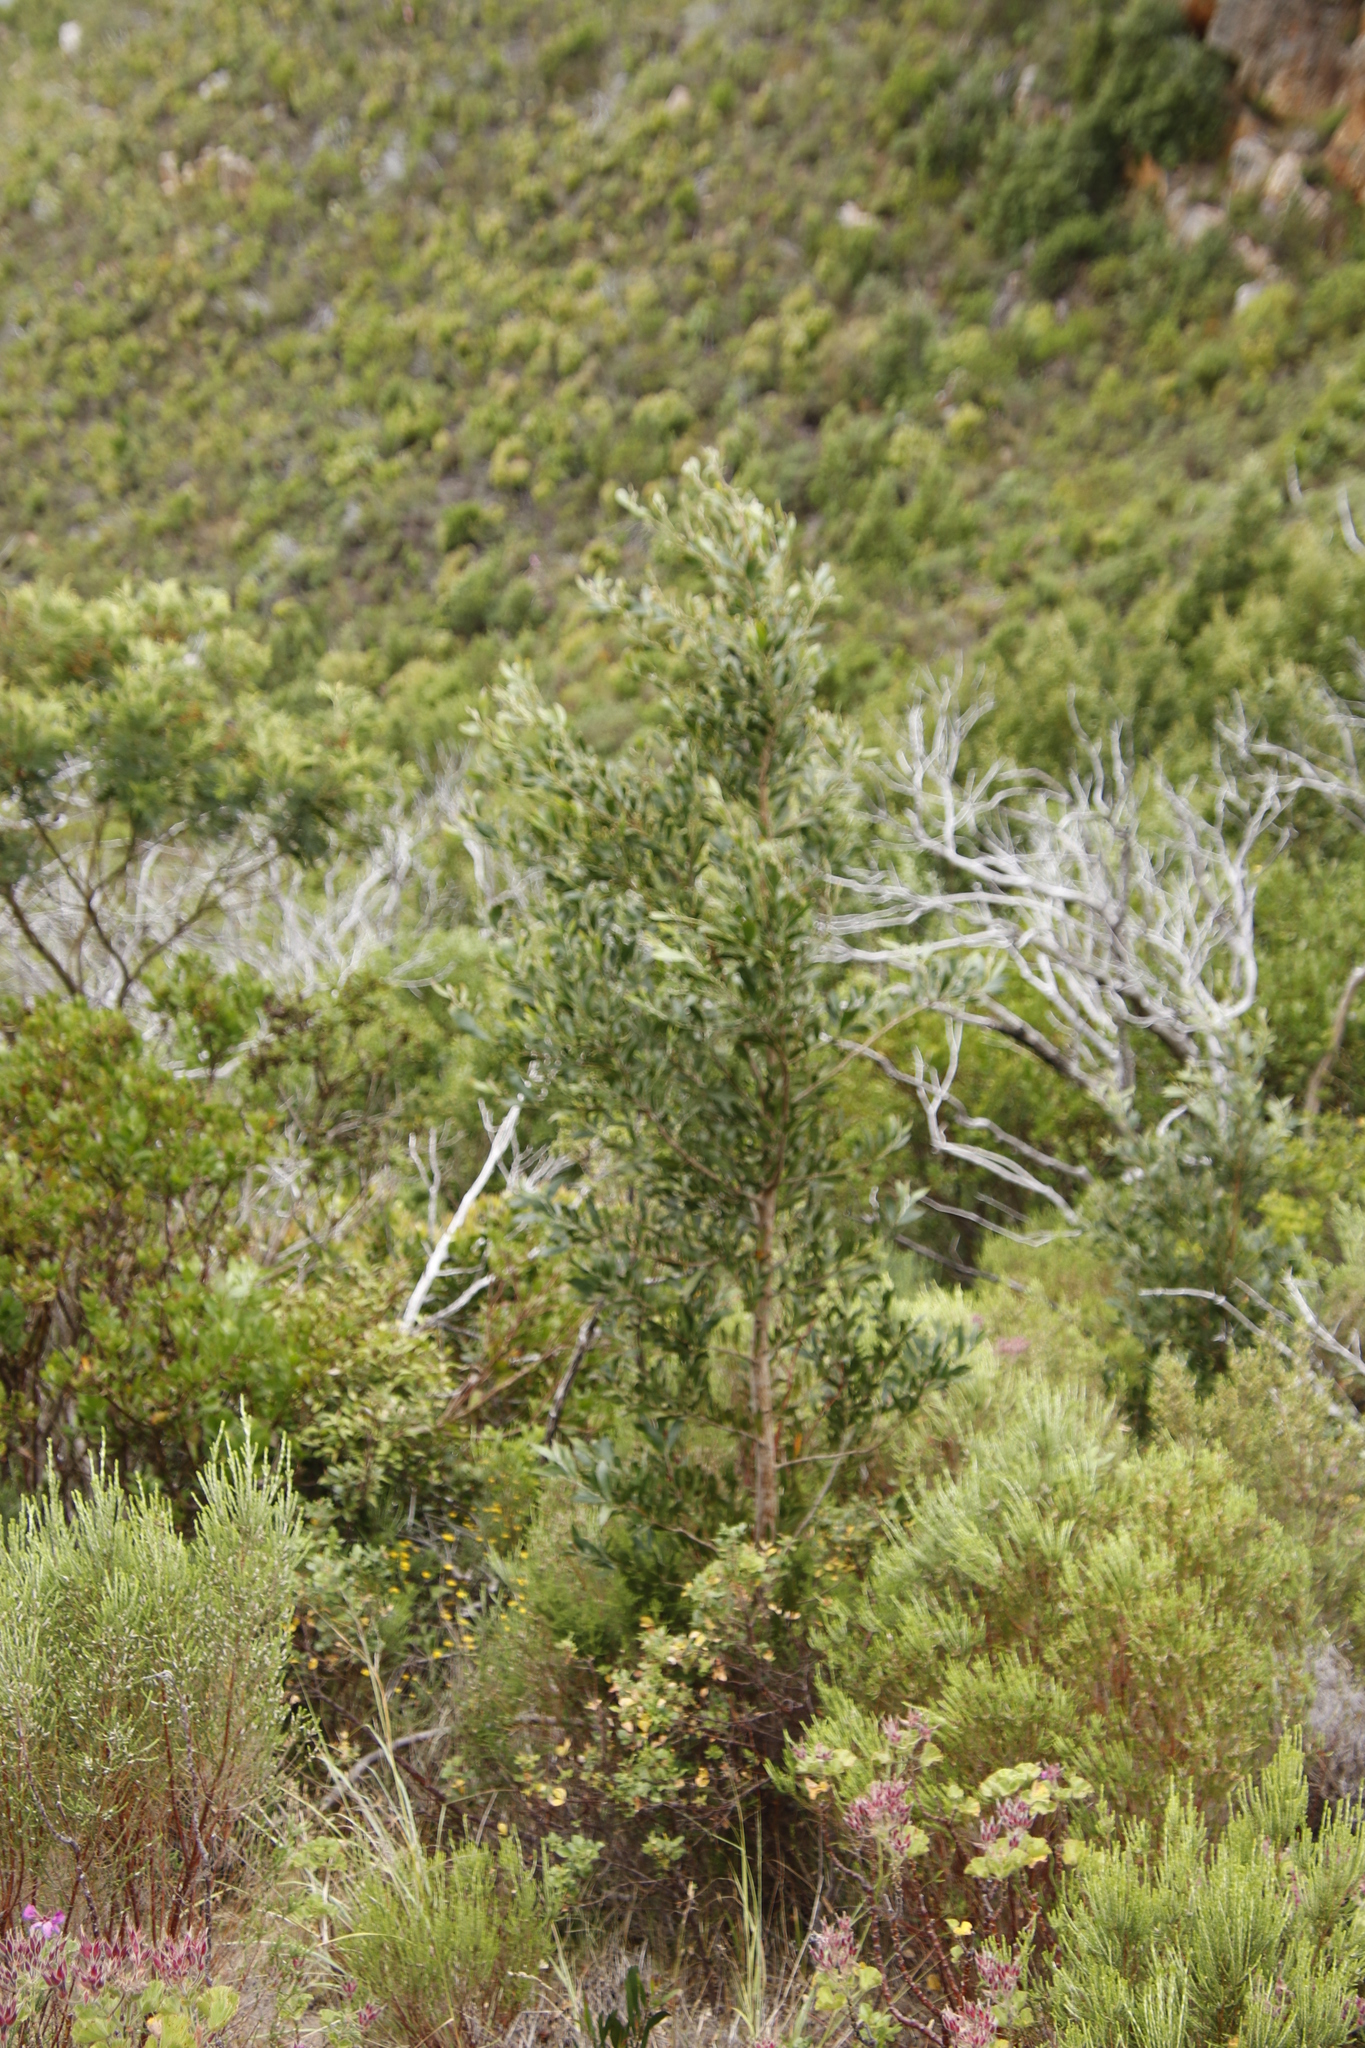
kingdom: Plantae
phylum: Tracheophyta
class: Magnoliopsida
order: Fabales
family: Fabaceae
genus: Acacia
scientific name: Acacia melanoxylon
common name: Blackwood
